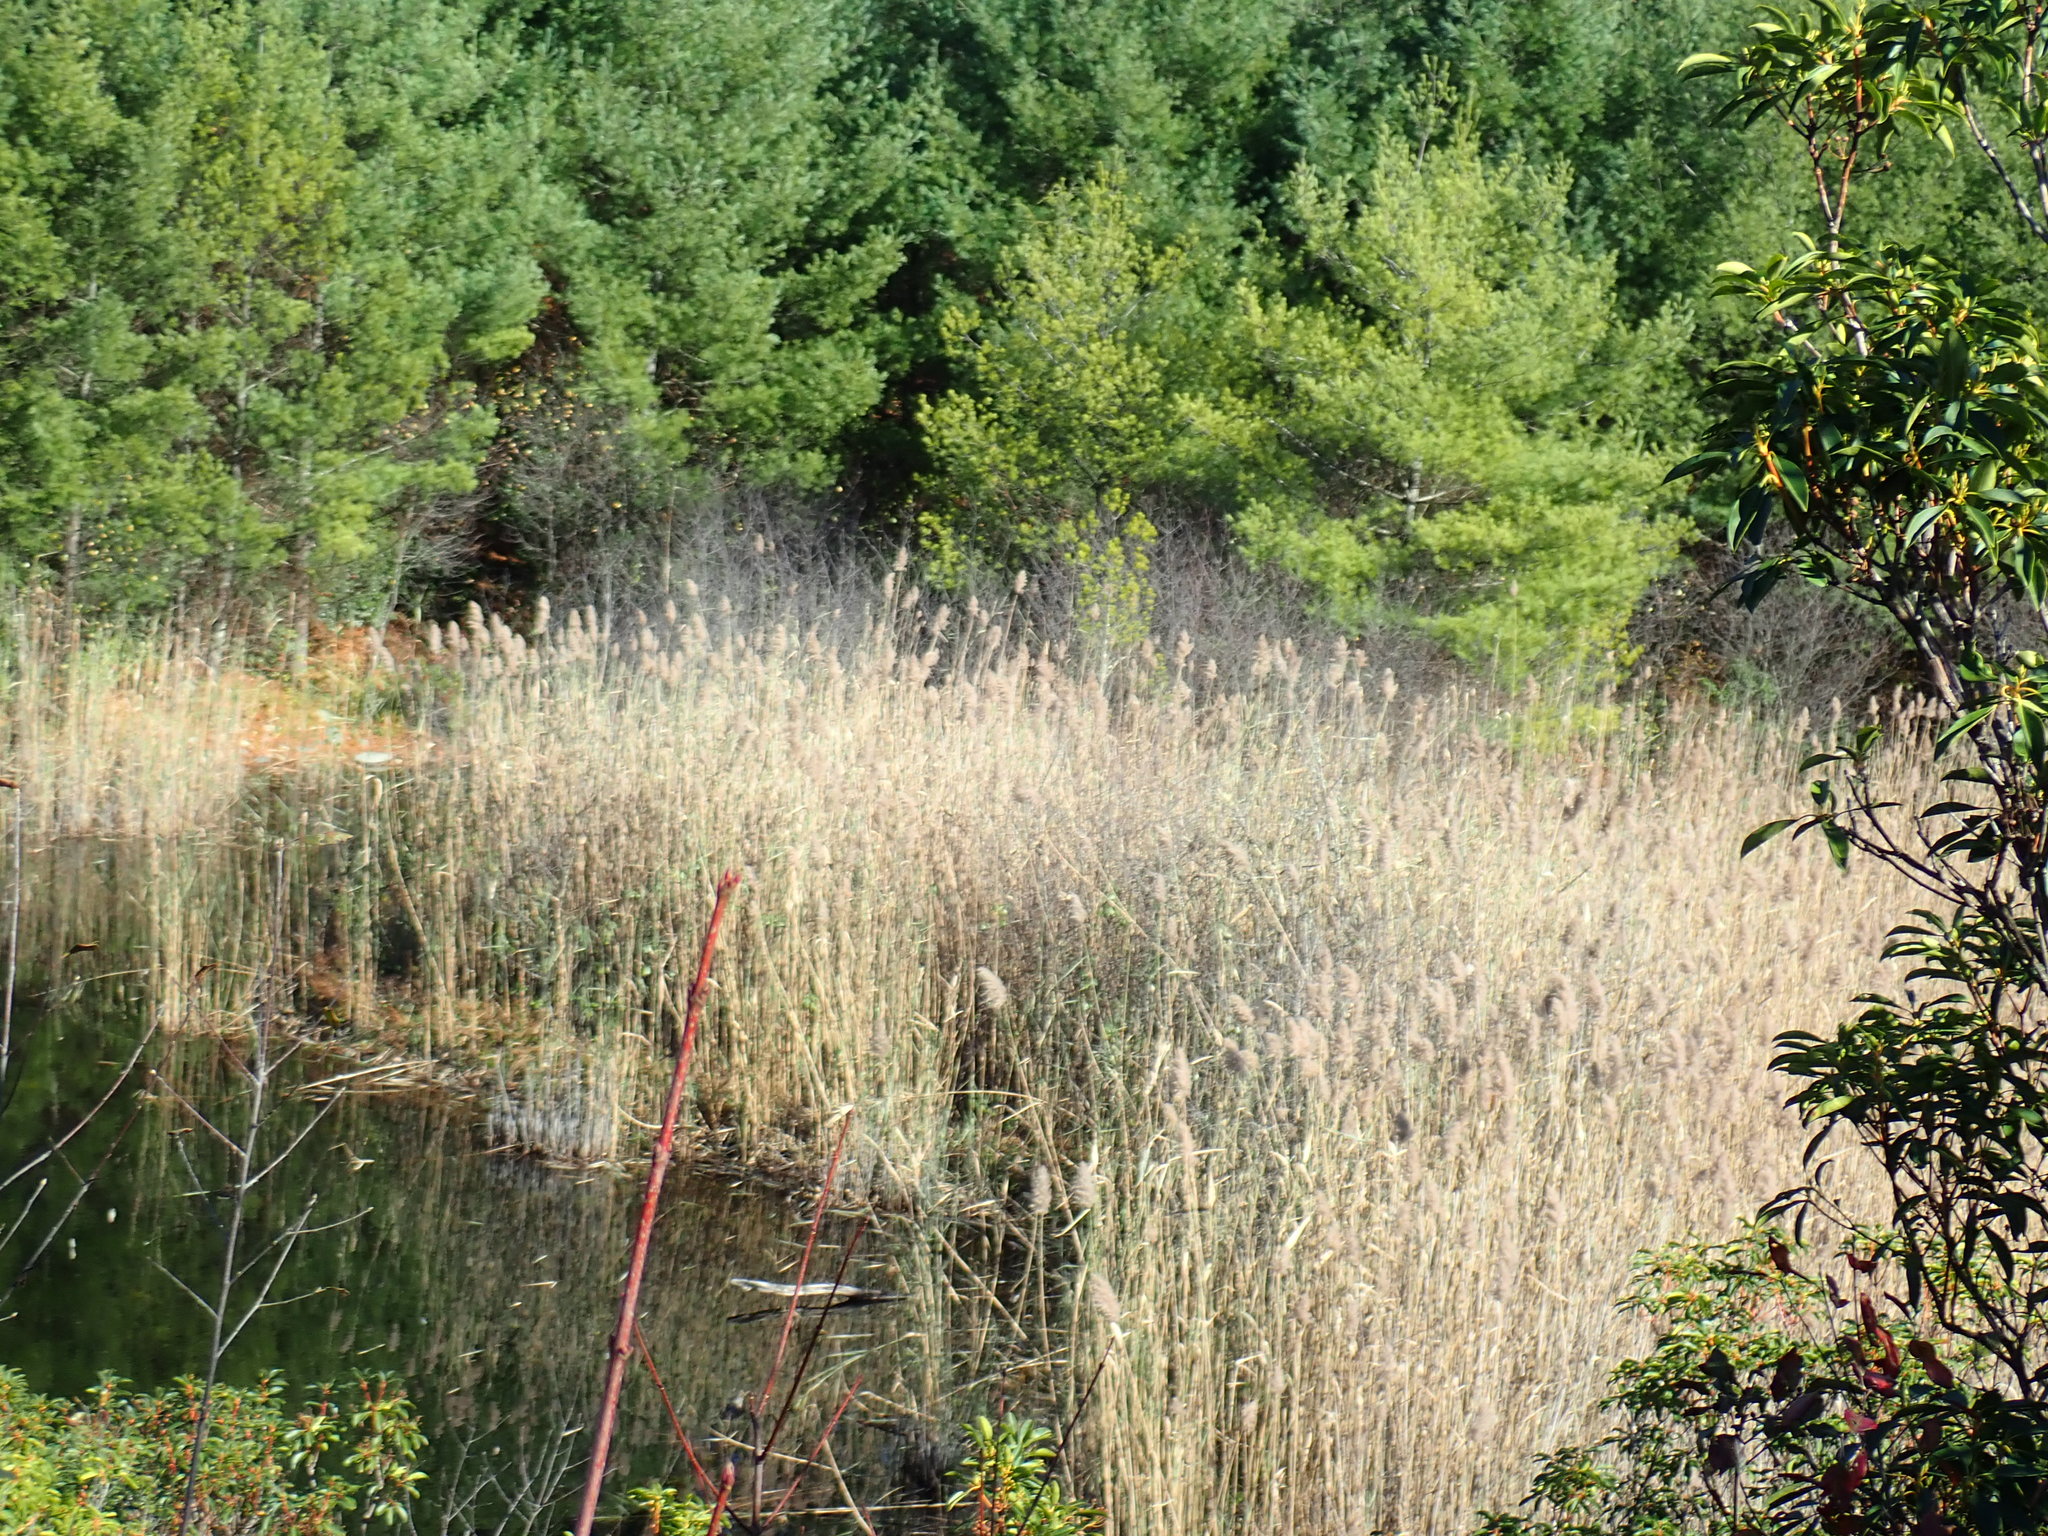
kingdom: Plantae
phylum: Tracheophyta
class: Liliopsida
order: Poales
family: Poaceae
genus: Phragmites
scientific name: Phragmites australis
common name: Common reed
